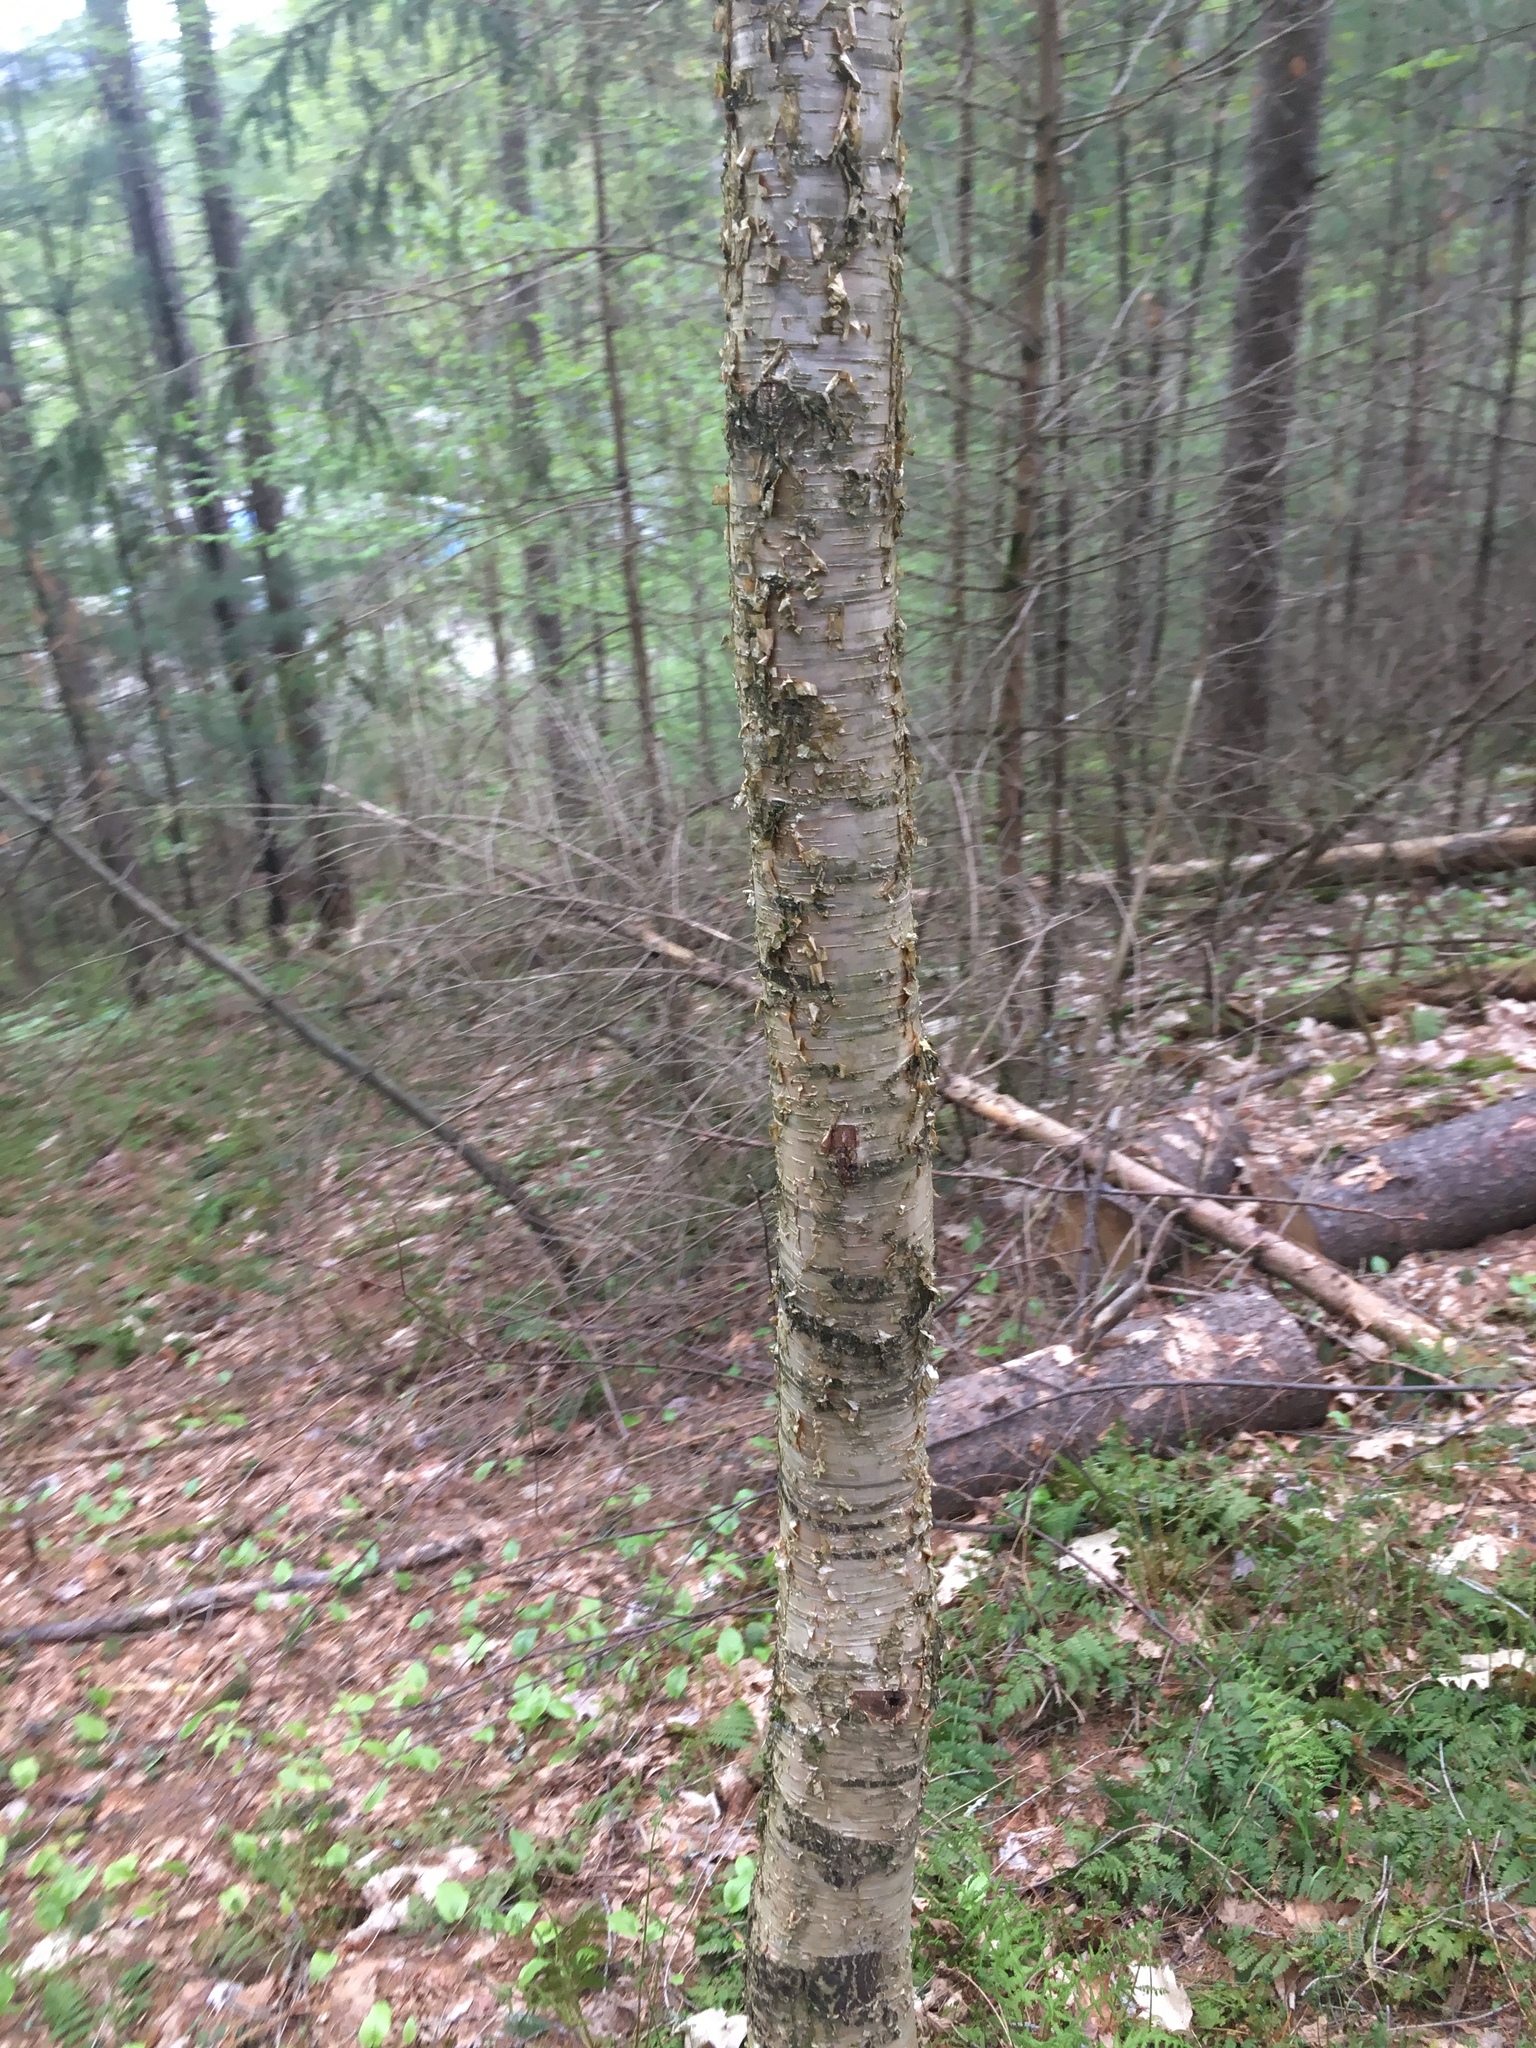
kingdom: Plantae
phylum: Tracheophyta
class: Magnoliopsida
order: Fagales
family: Betulaceae
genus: Betula
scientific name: Betula alleghaniensis
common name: Yellow birch
